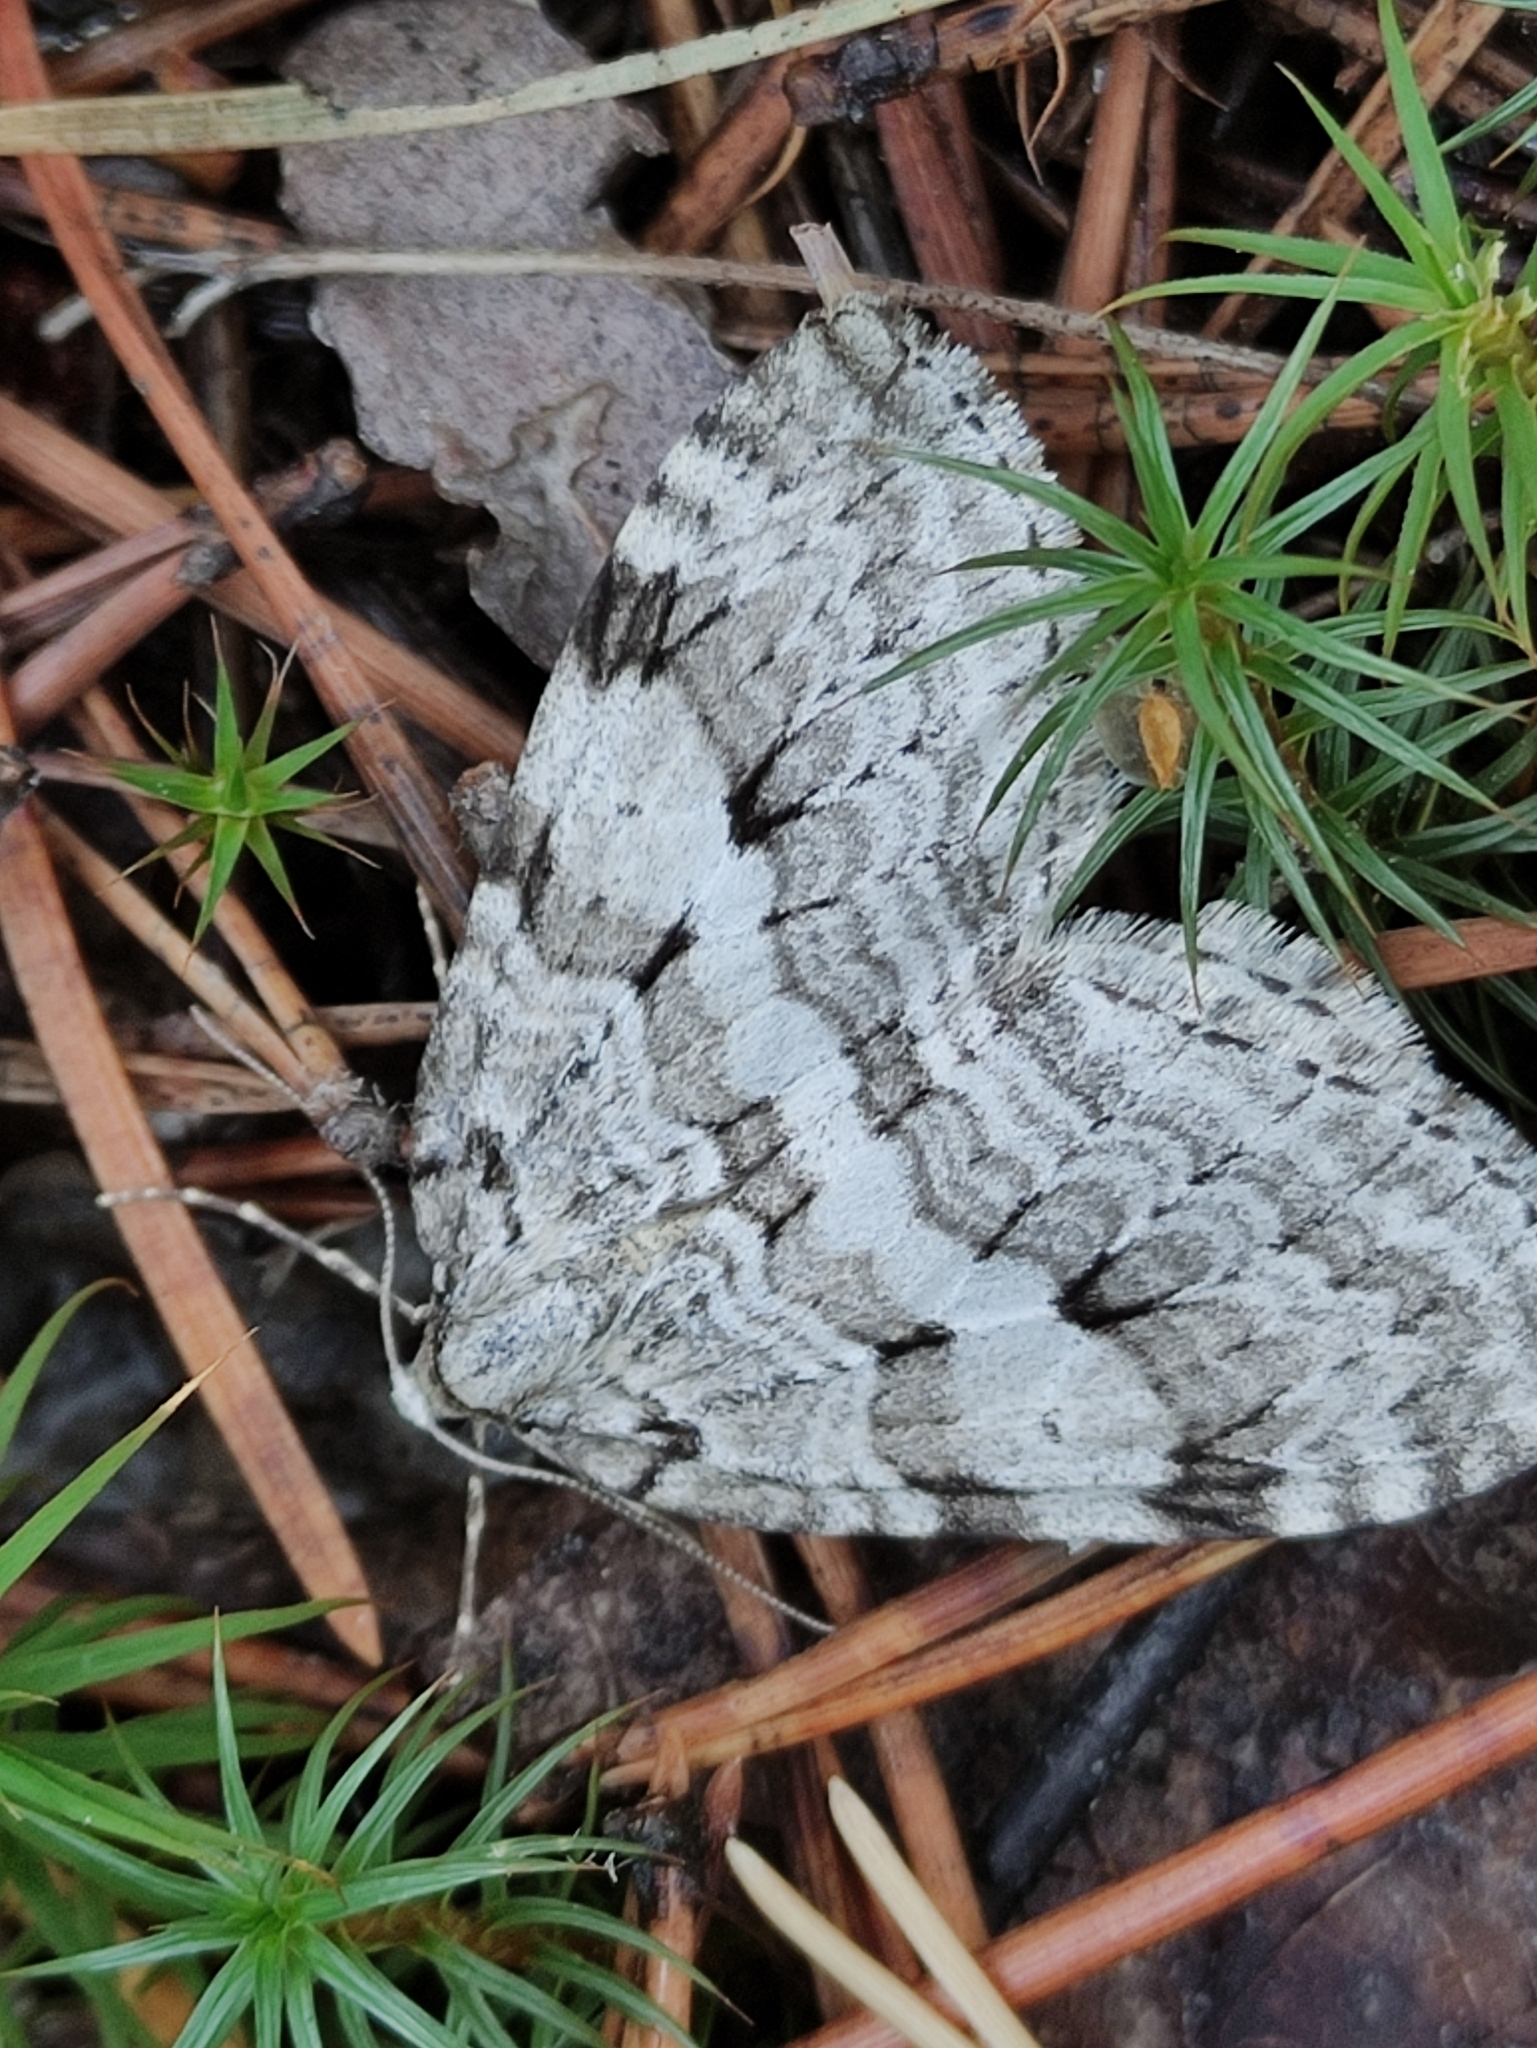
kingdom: Animalia
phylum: Arthropoda
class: Insecta
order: Lepidoptera
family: Geometridae
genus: Epirrita
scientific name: Epirrita autumnata
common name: Autumnal moth
